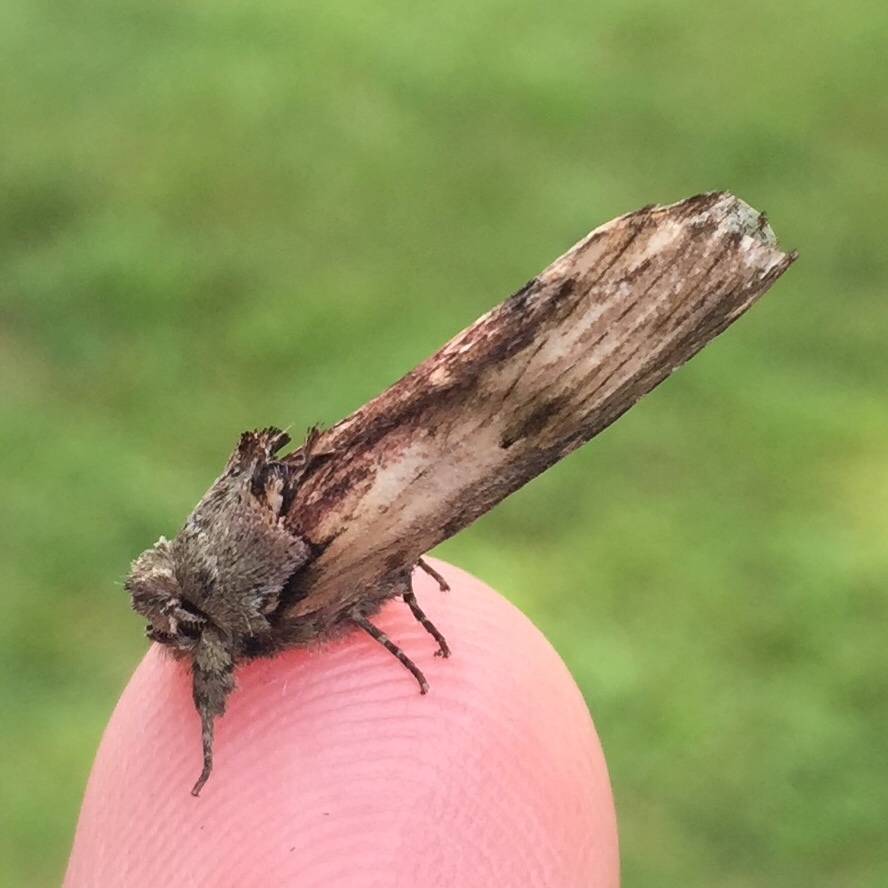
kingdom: Animalia
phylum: Arthropoda
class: Insecta
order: Lepidoptera
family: Notodontidae
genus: Schizura
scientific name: Schizura
